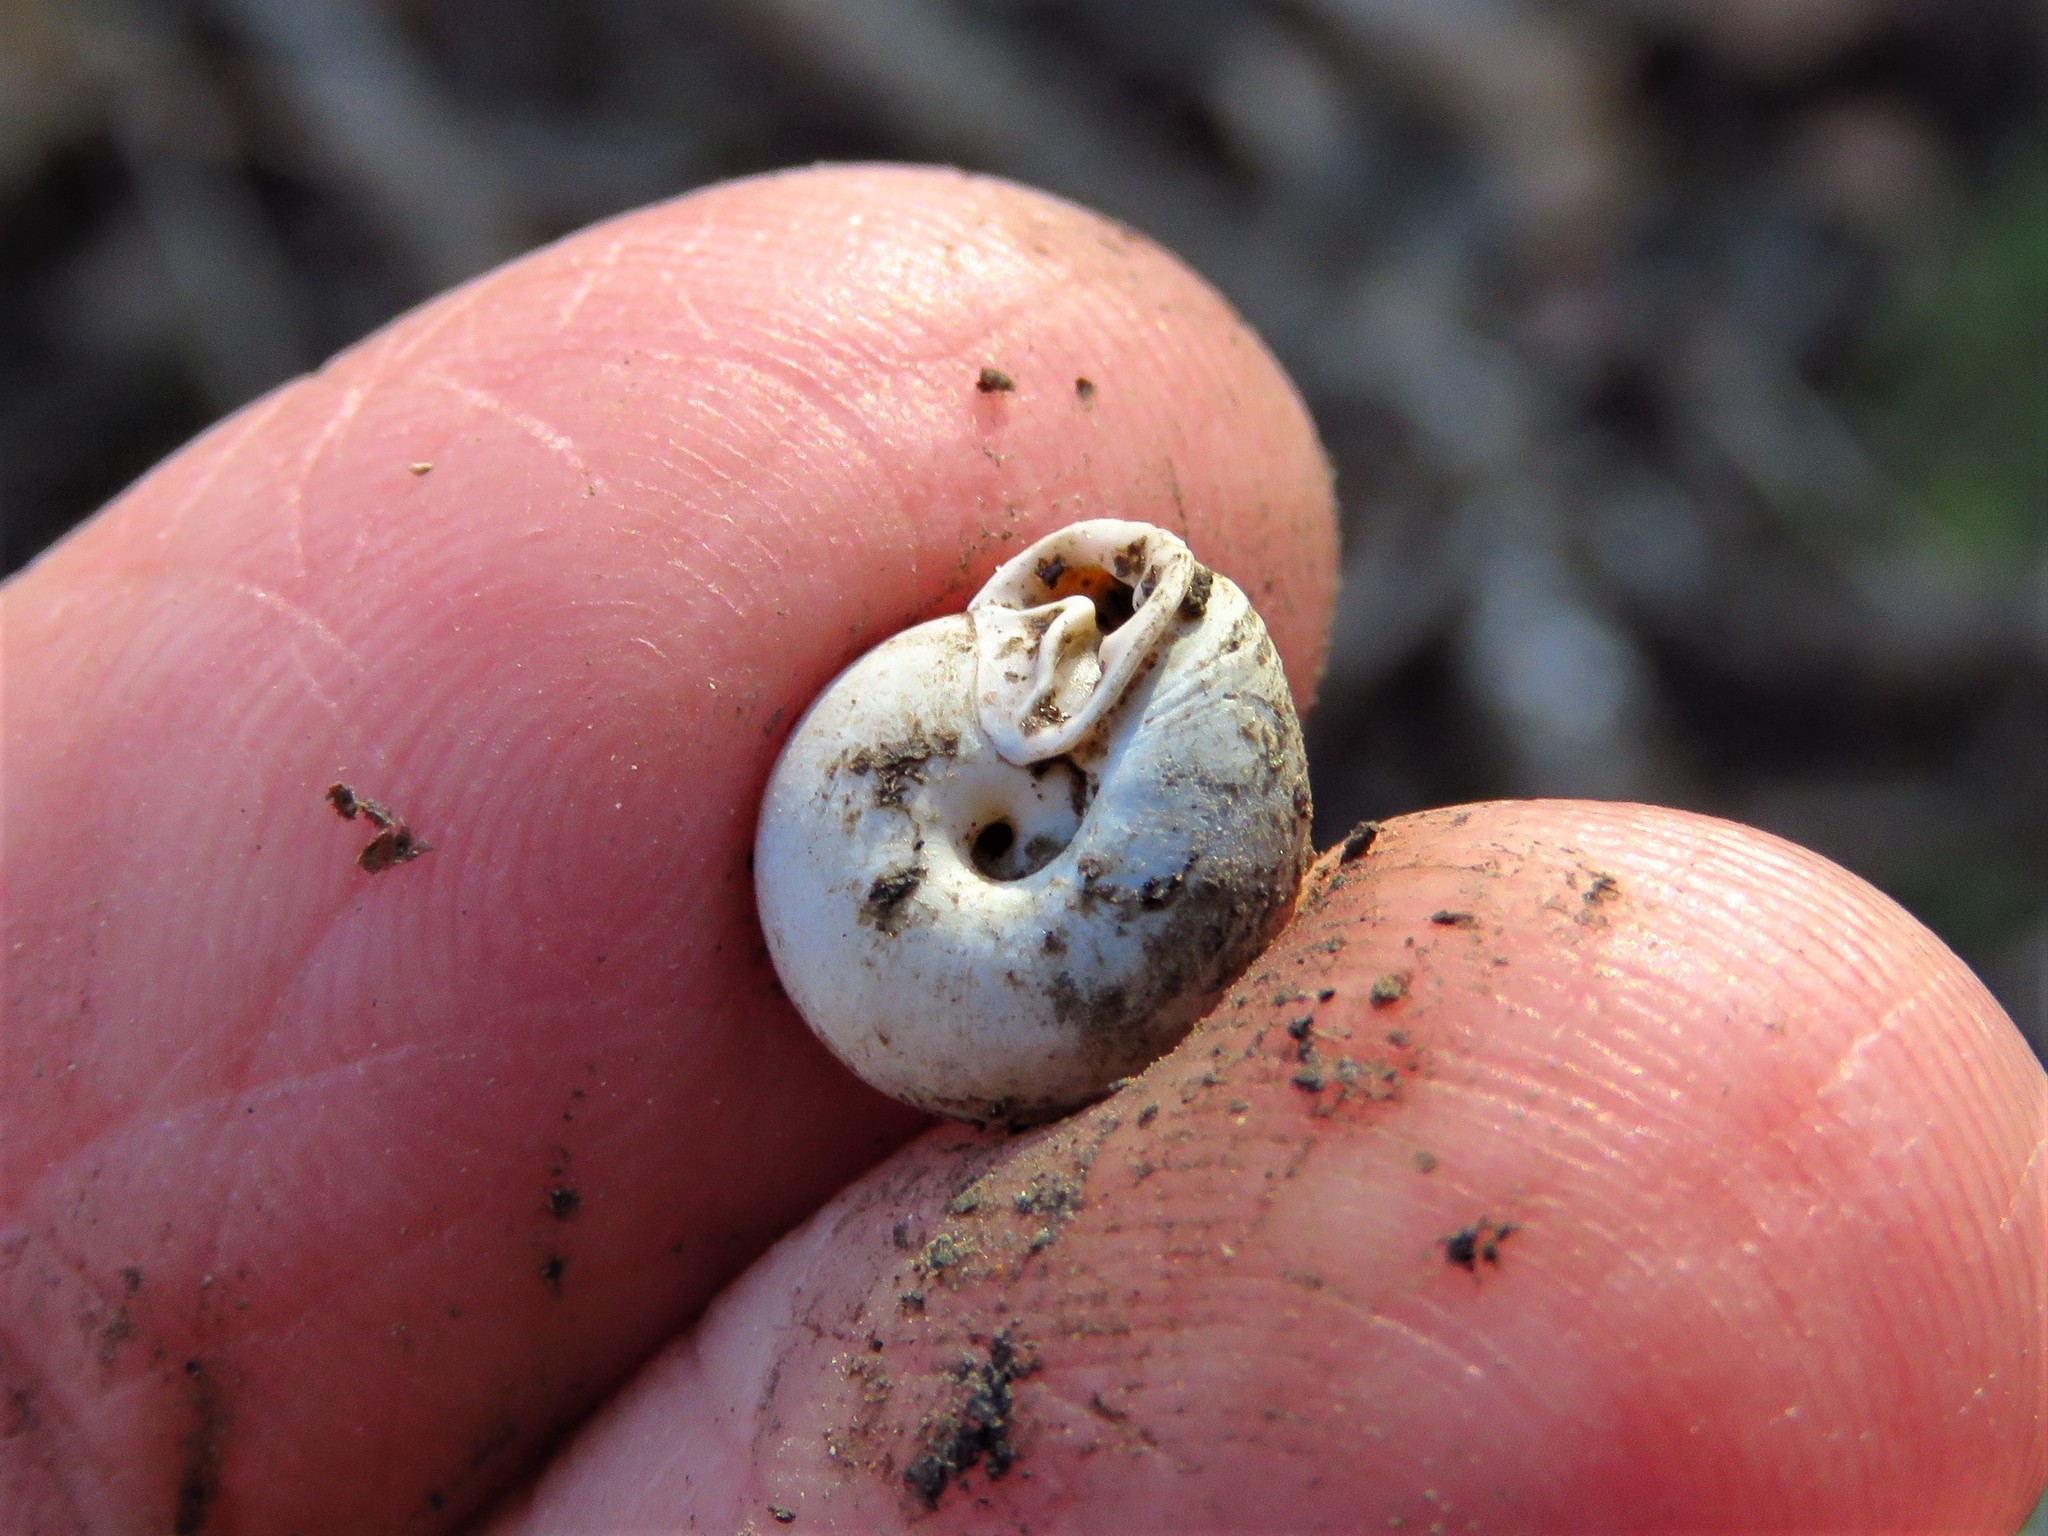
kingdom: Animalia
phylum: Mollusca
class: Gastropoda
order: Stylommatophora
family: Polygyridae
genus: Linisa
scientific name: Linisa texasiana
